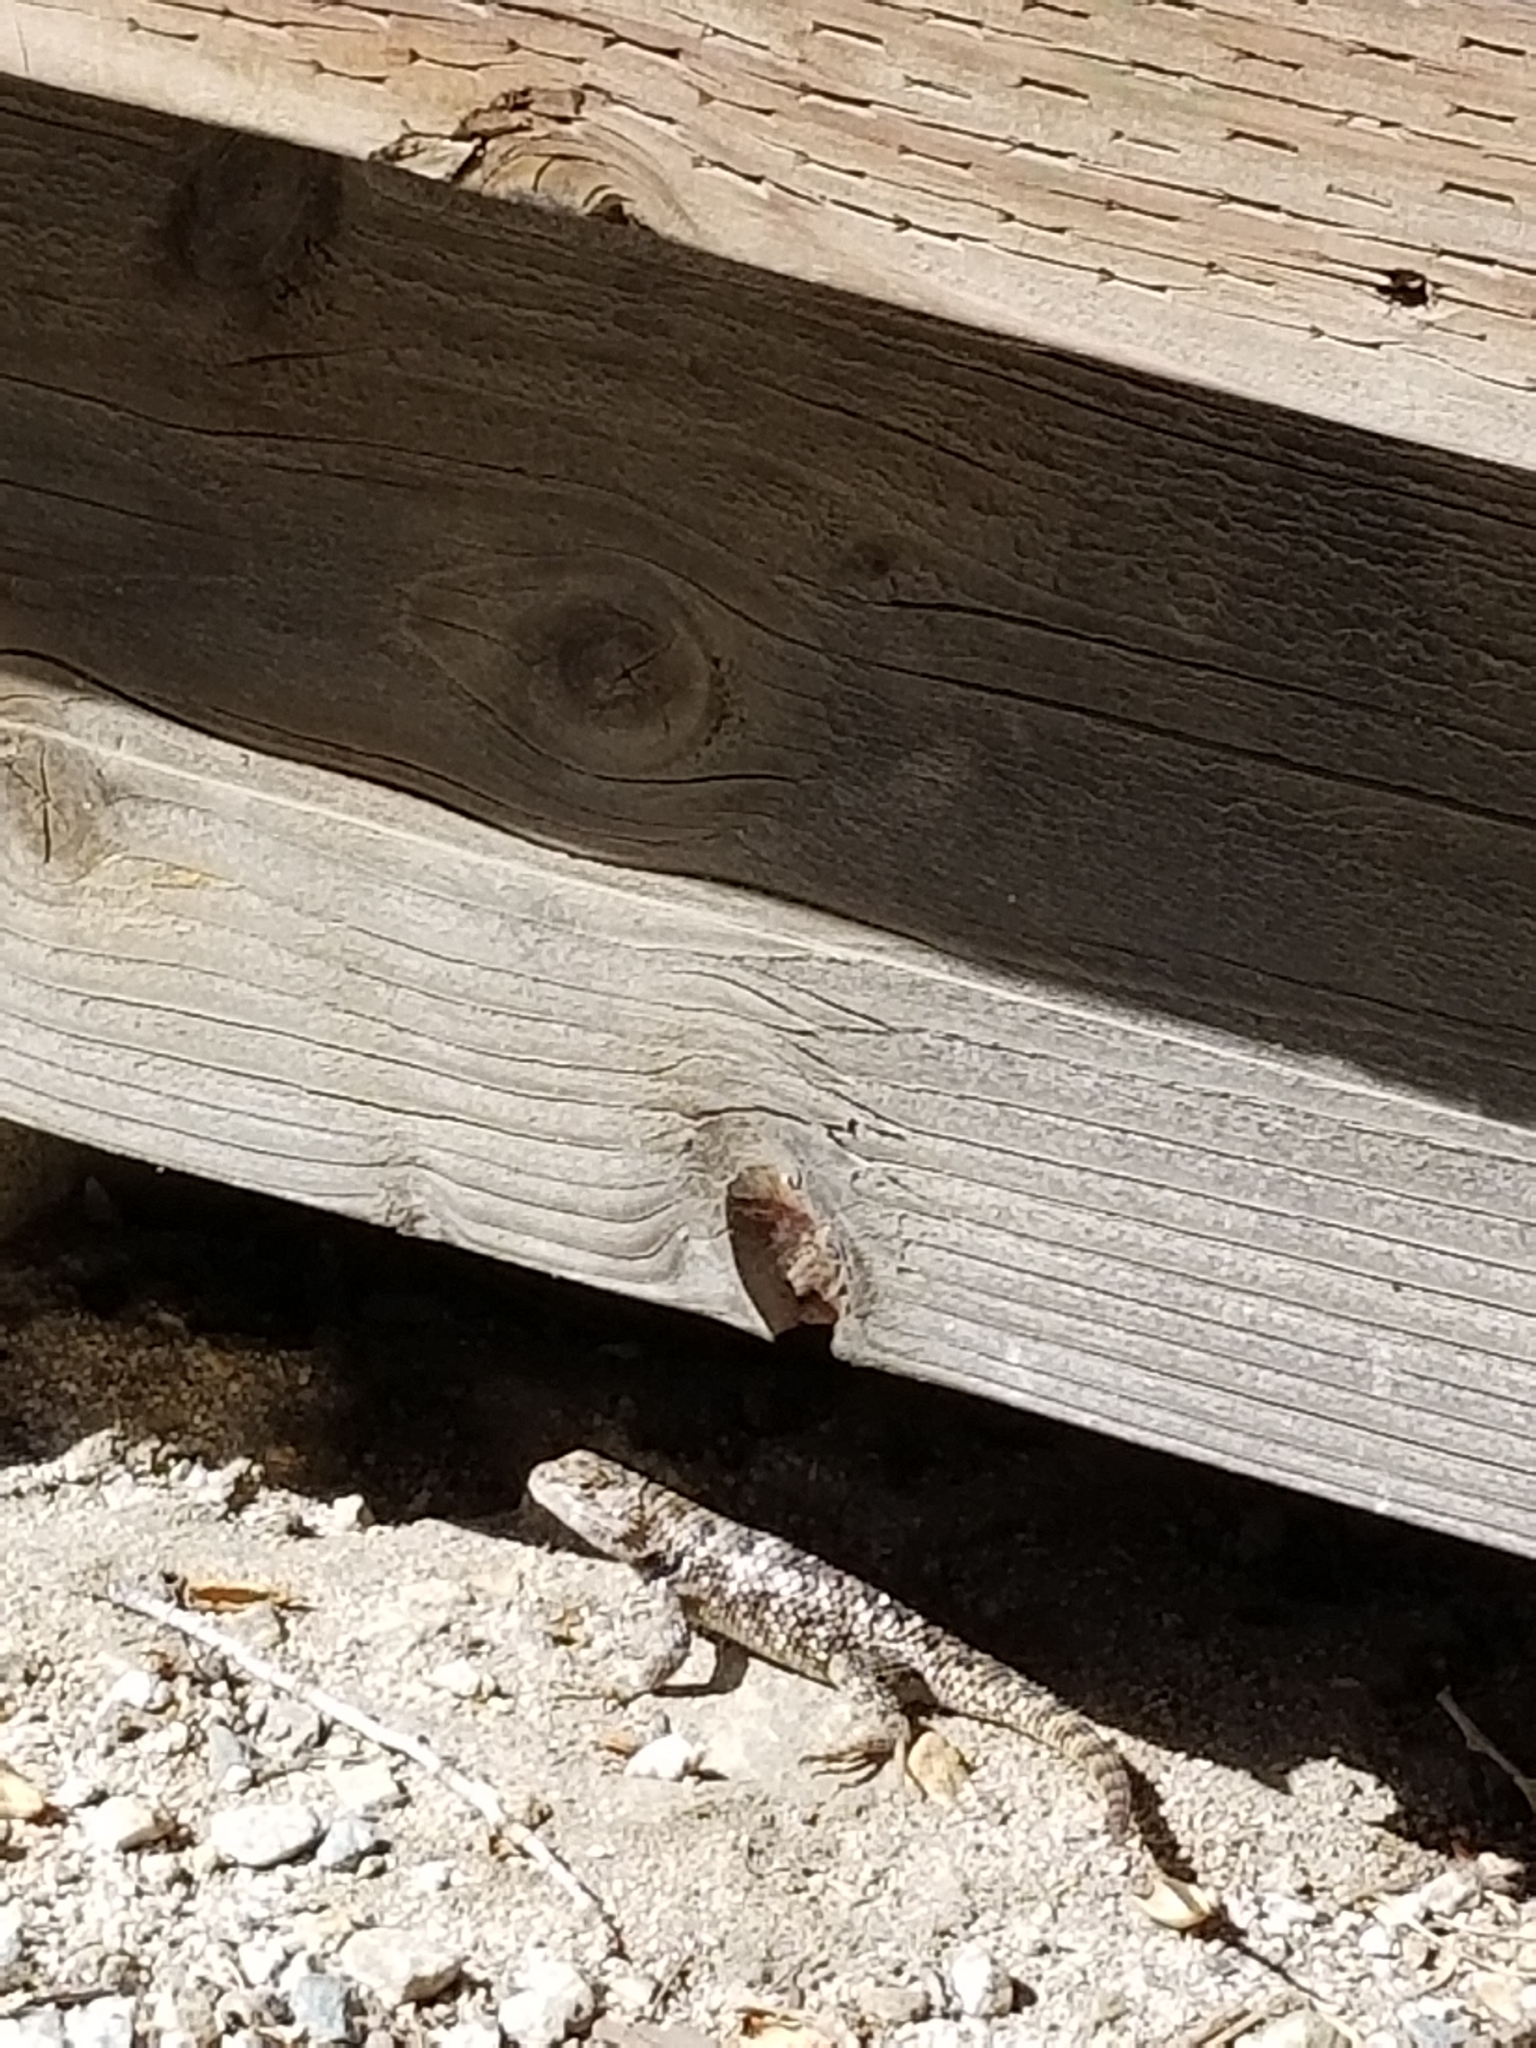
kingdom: Animalia
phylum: Chordata
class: Squamata
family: Phrynosomatidae
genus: Sceloporus
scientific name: Sceloporus magister
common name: Desert spiny lizard
